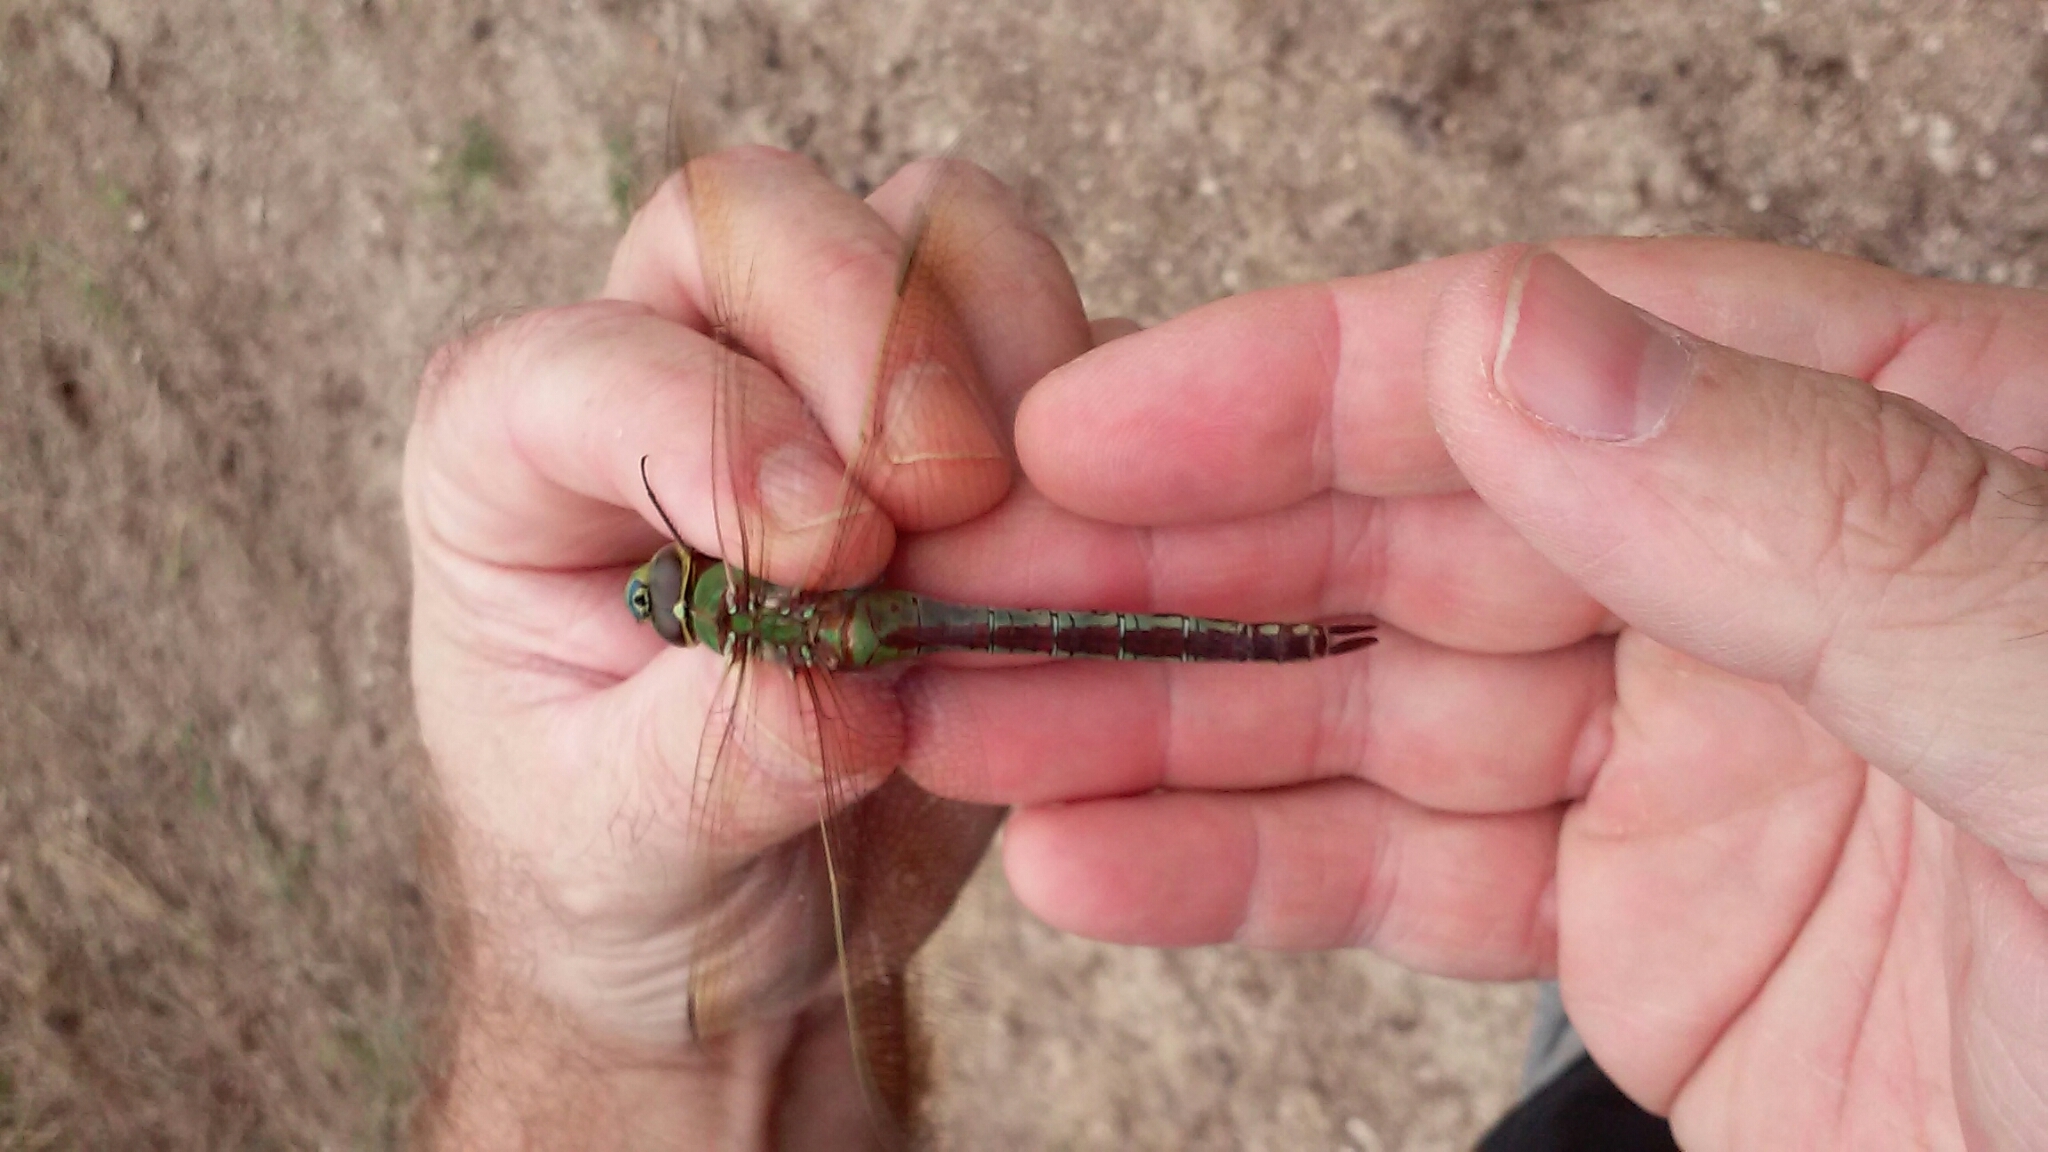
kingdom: Animalia
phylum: Arthropoda
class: Insecta
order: Odonata
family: Aeshnidae
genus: Anax
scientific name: Anax junius
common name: Common green darner
